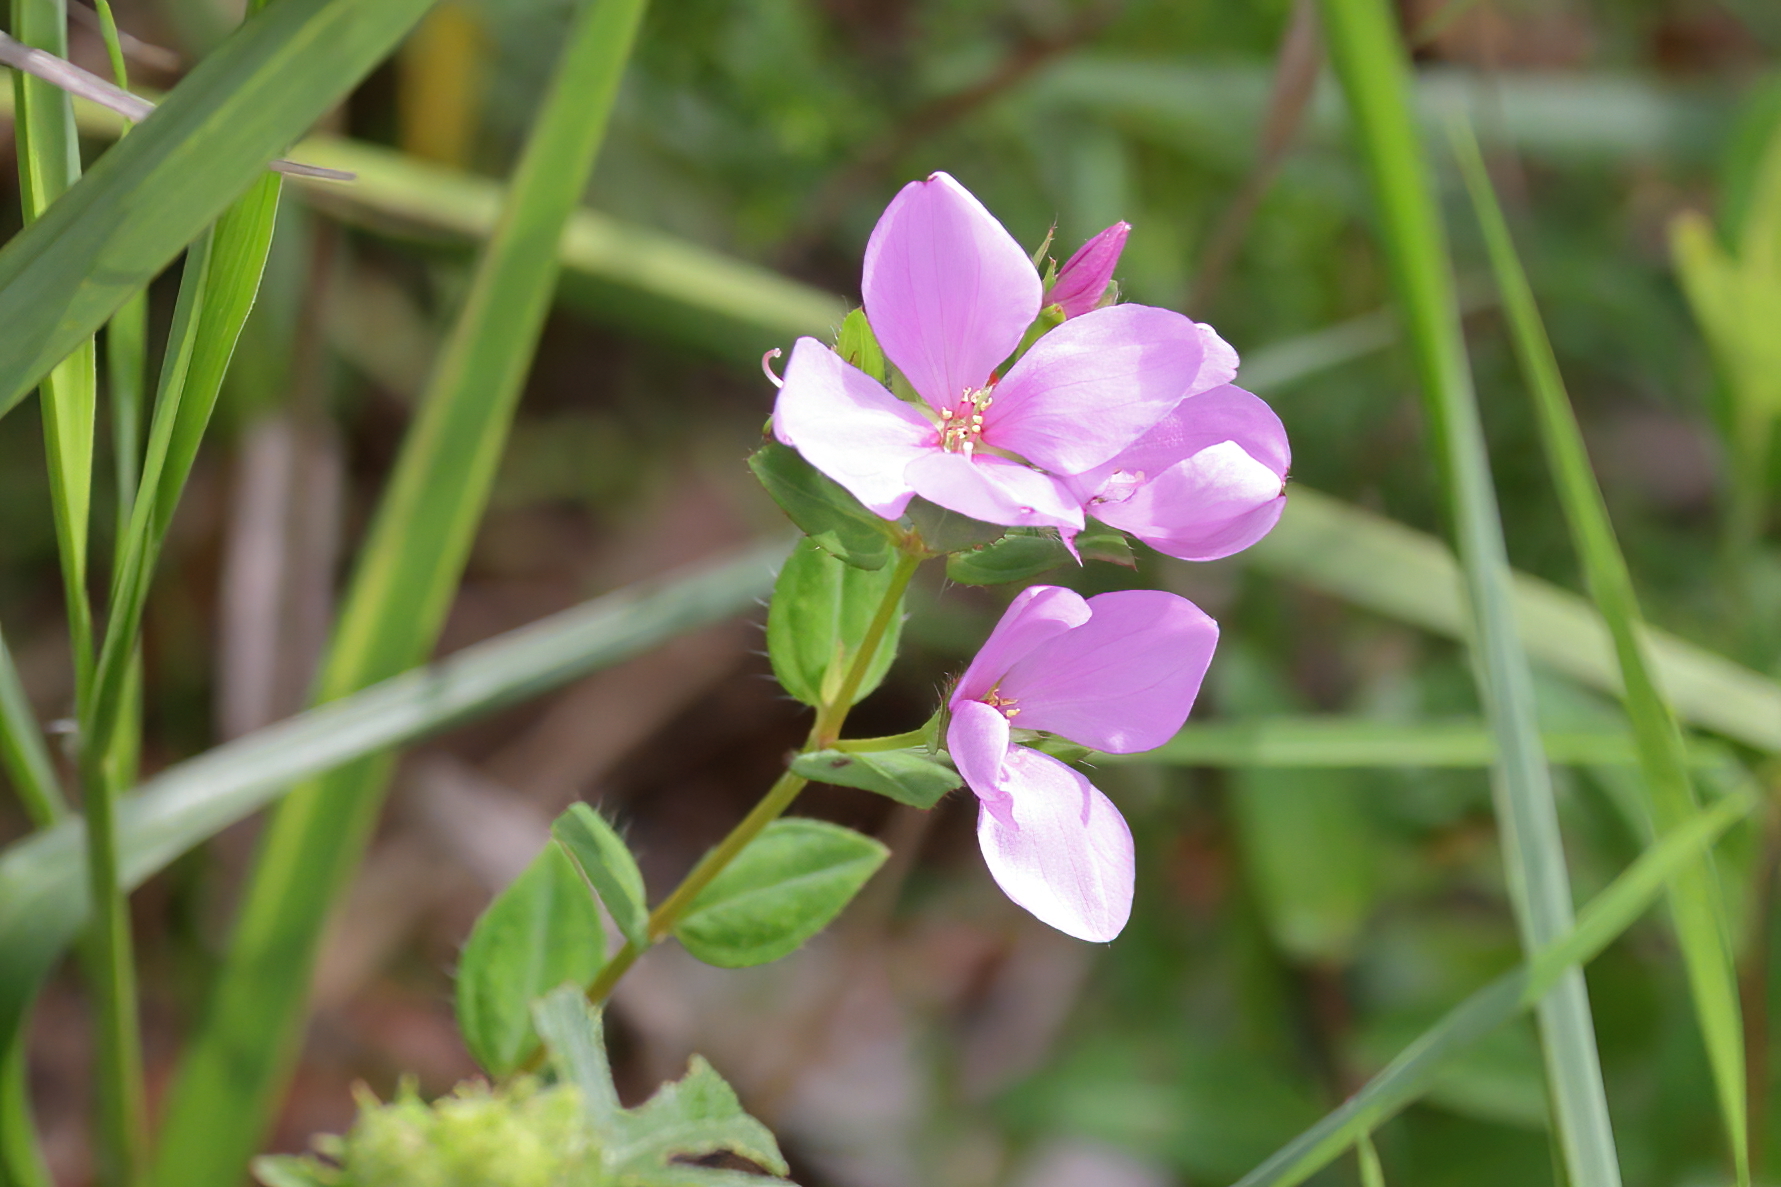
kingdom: Plantae
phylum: Tracheophyta
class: Magnoliopsida
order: Myrtales
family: Melastomataceae
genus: Rhexia
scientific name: Rhexia petiolata
